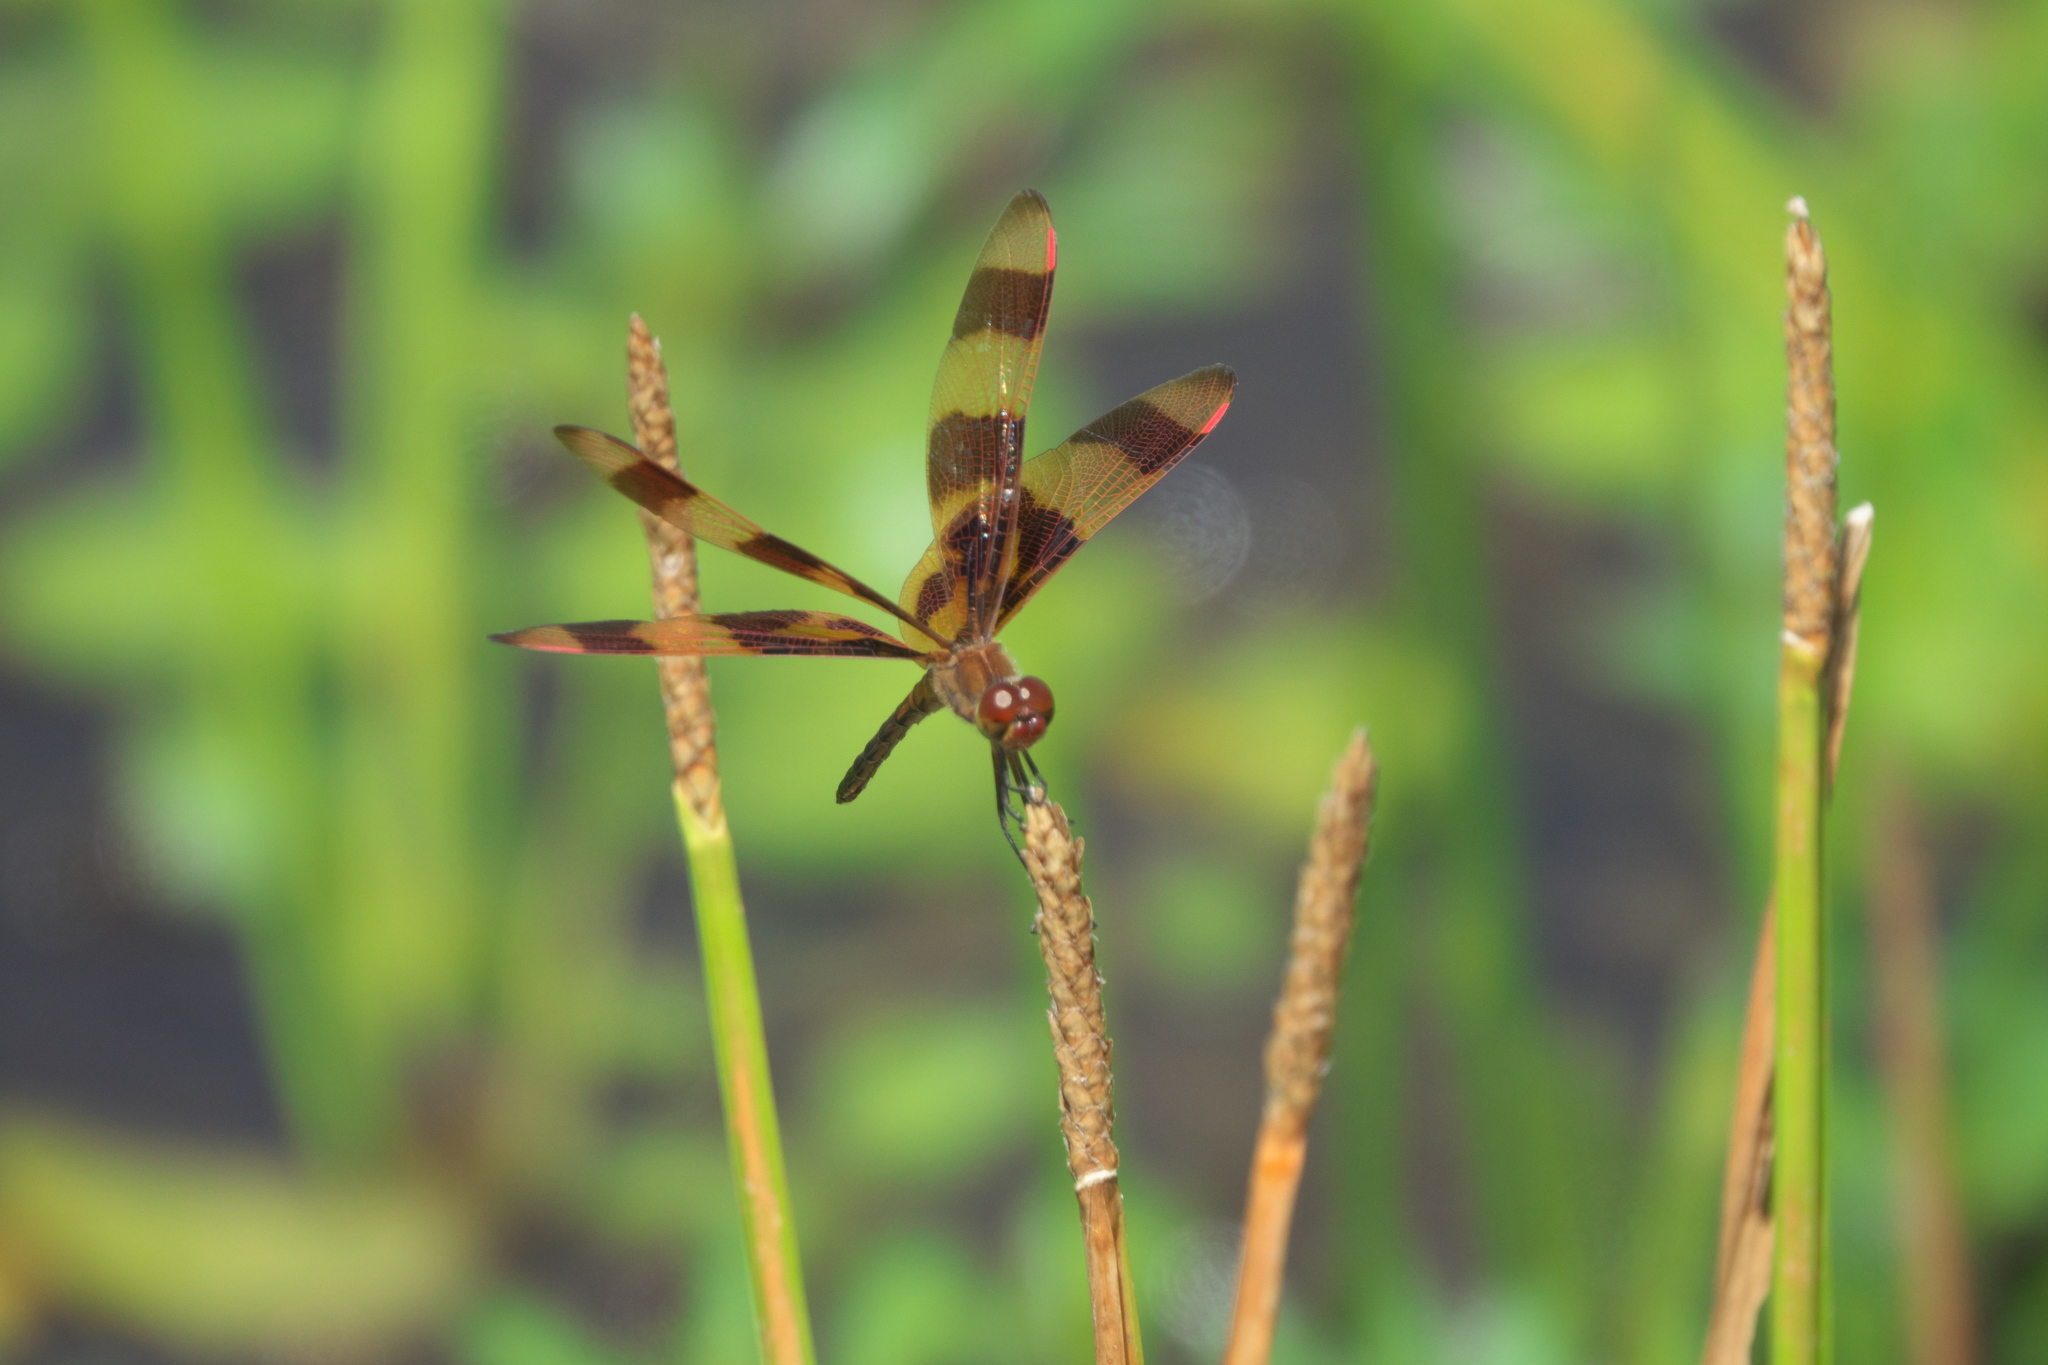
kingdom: Animalia
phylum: Arthropoda
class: Insecta
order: Odonata
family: Libellulidae
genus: Celithemis
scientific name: Celithemis eponina
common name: Halloween pennant
